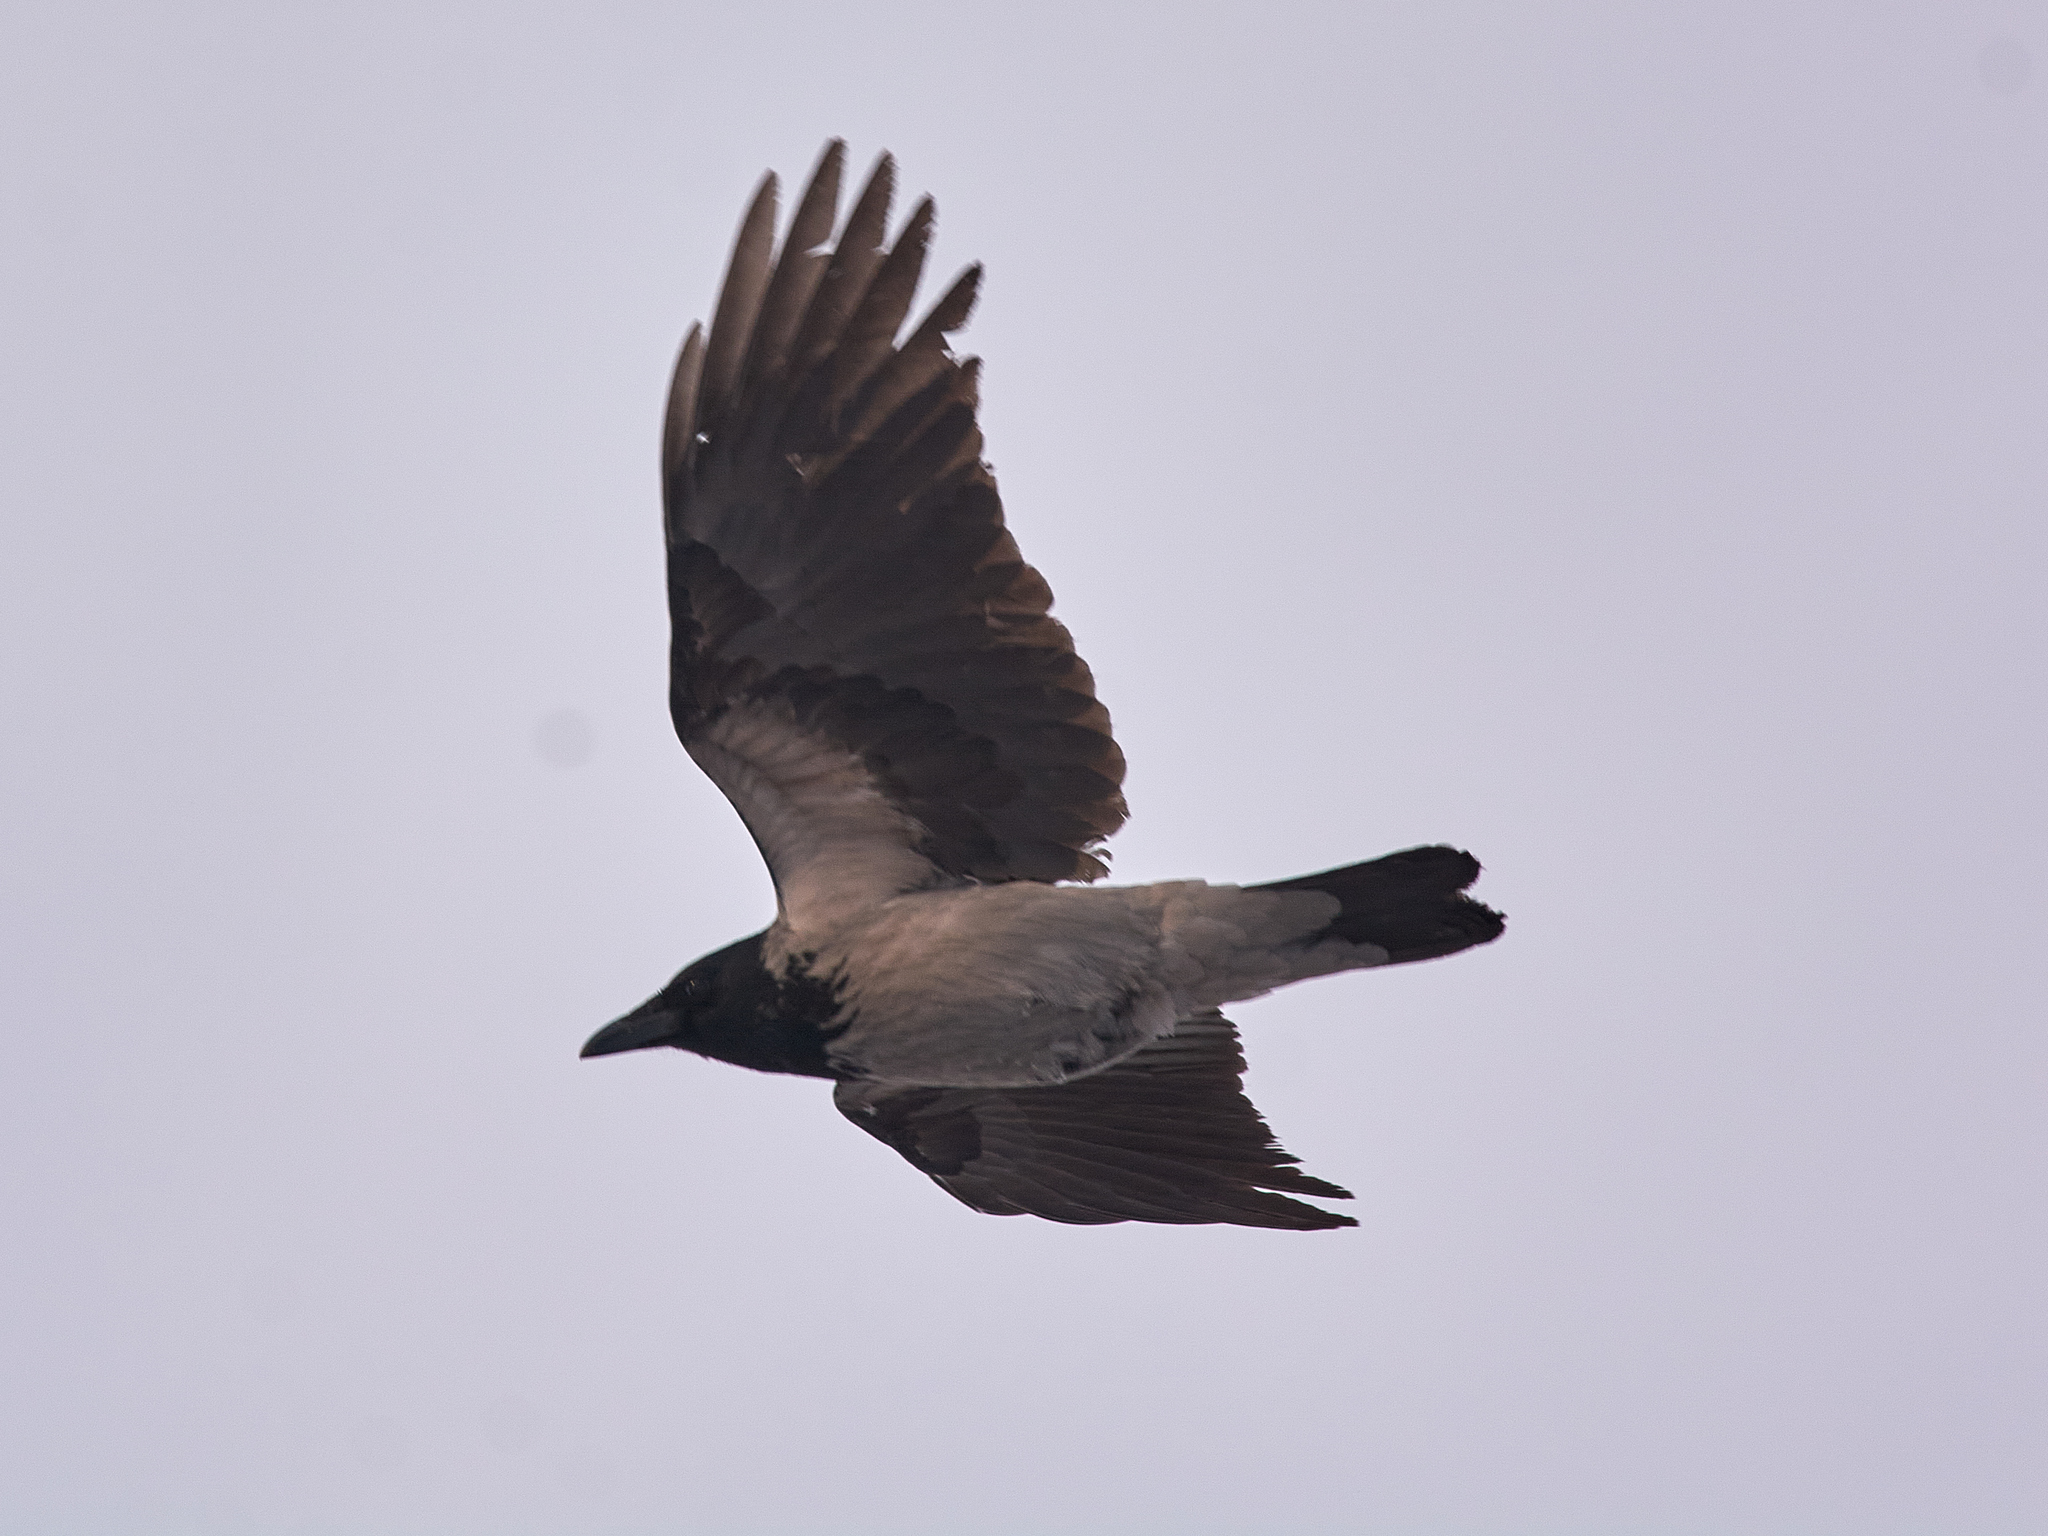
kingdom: Animalia
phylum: Chordata
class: Aves
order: Passeriformes
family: Corvidae
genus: Corvus
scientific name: Corvus cornix
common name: Hooded crow
